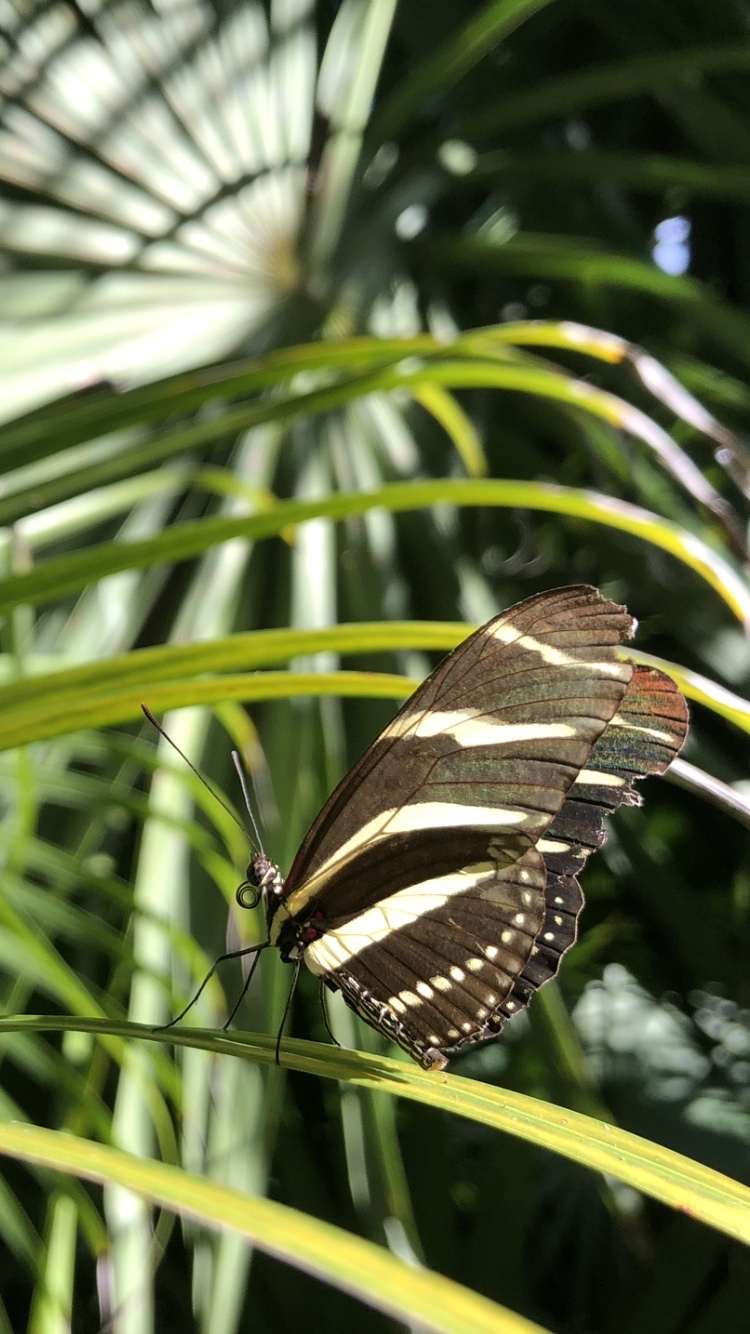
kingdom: Animalia
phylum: Arthropoda
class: Insecta
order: Lepidoptera
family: Nymphalidae
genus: Heliconius
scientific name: Heliconius charithonia
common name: Zebra long wing
